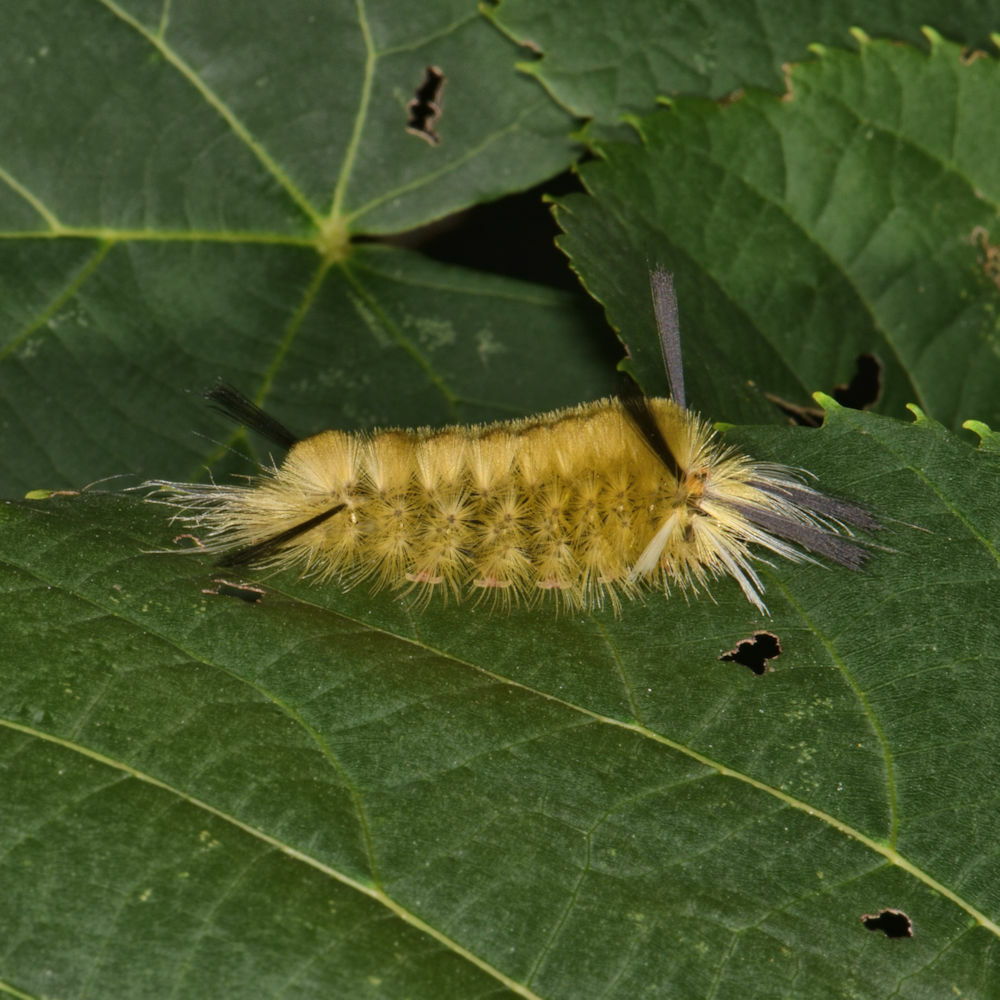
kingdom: Animalia
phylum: Arthropoda
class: Insecta
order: Lepidoptera
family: Erebidae
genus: Halysidota
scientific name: Halysidota tessellaris
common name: Banded tussock moth
